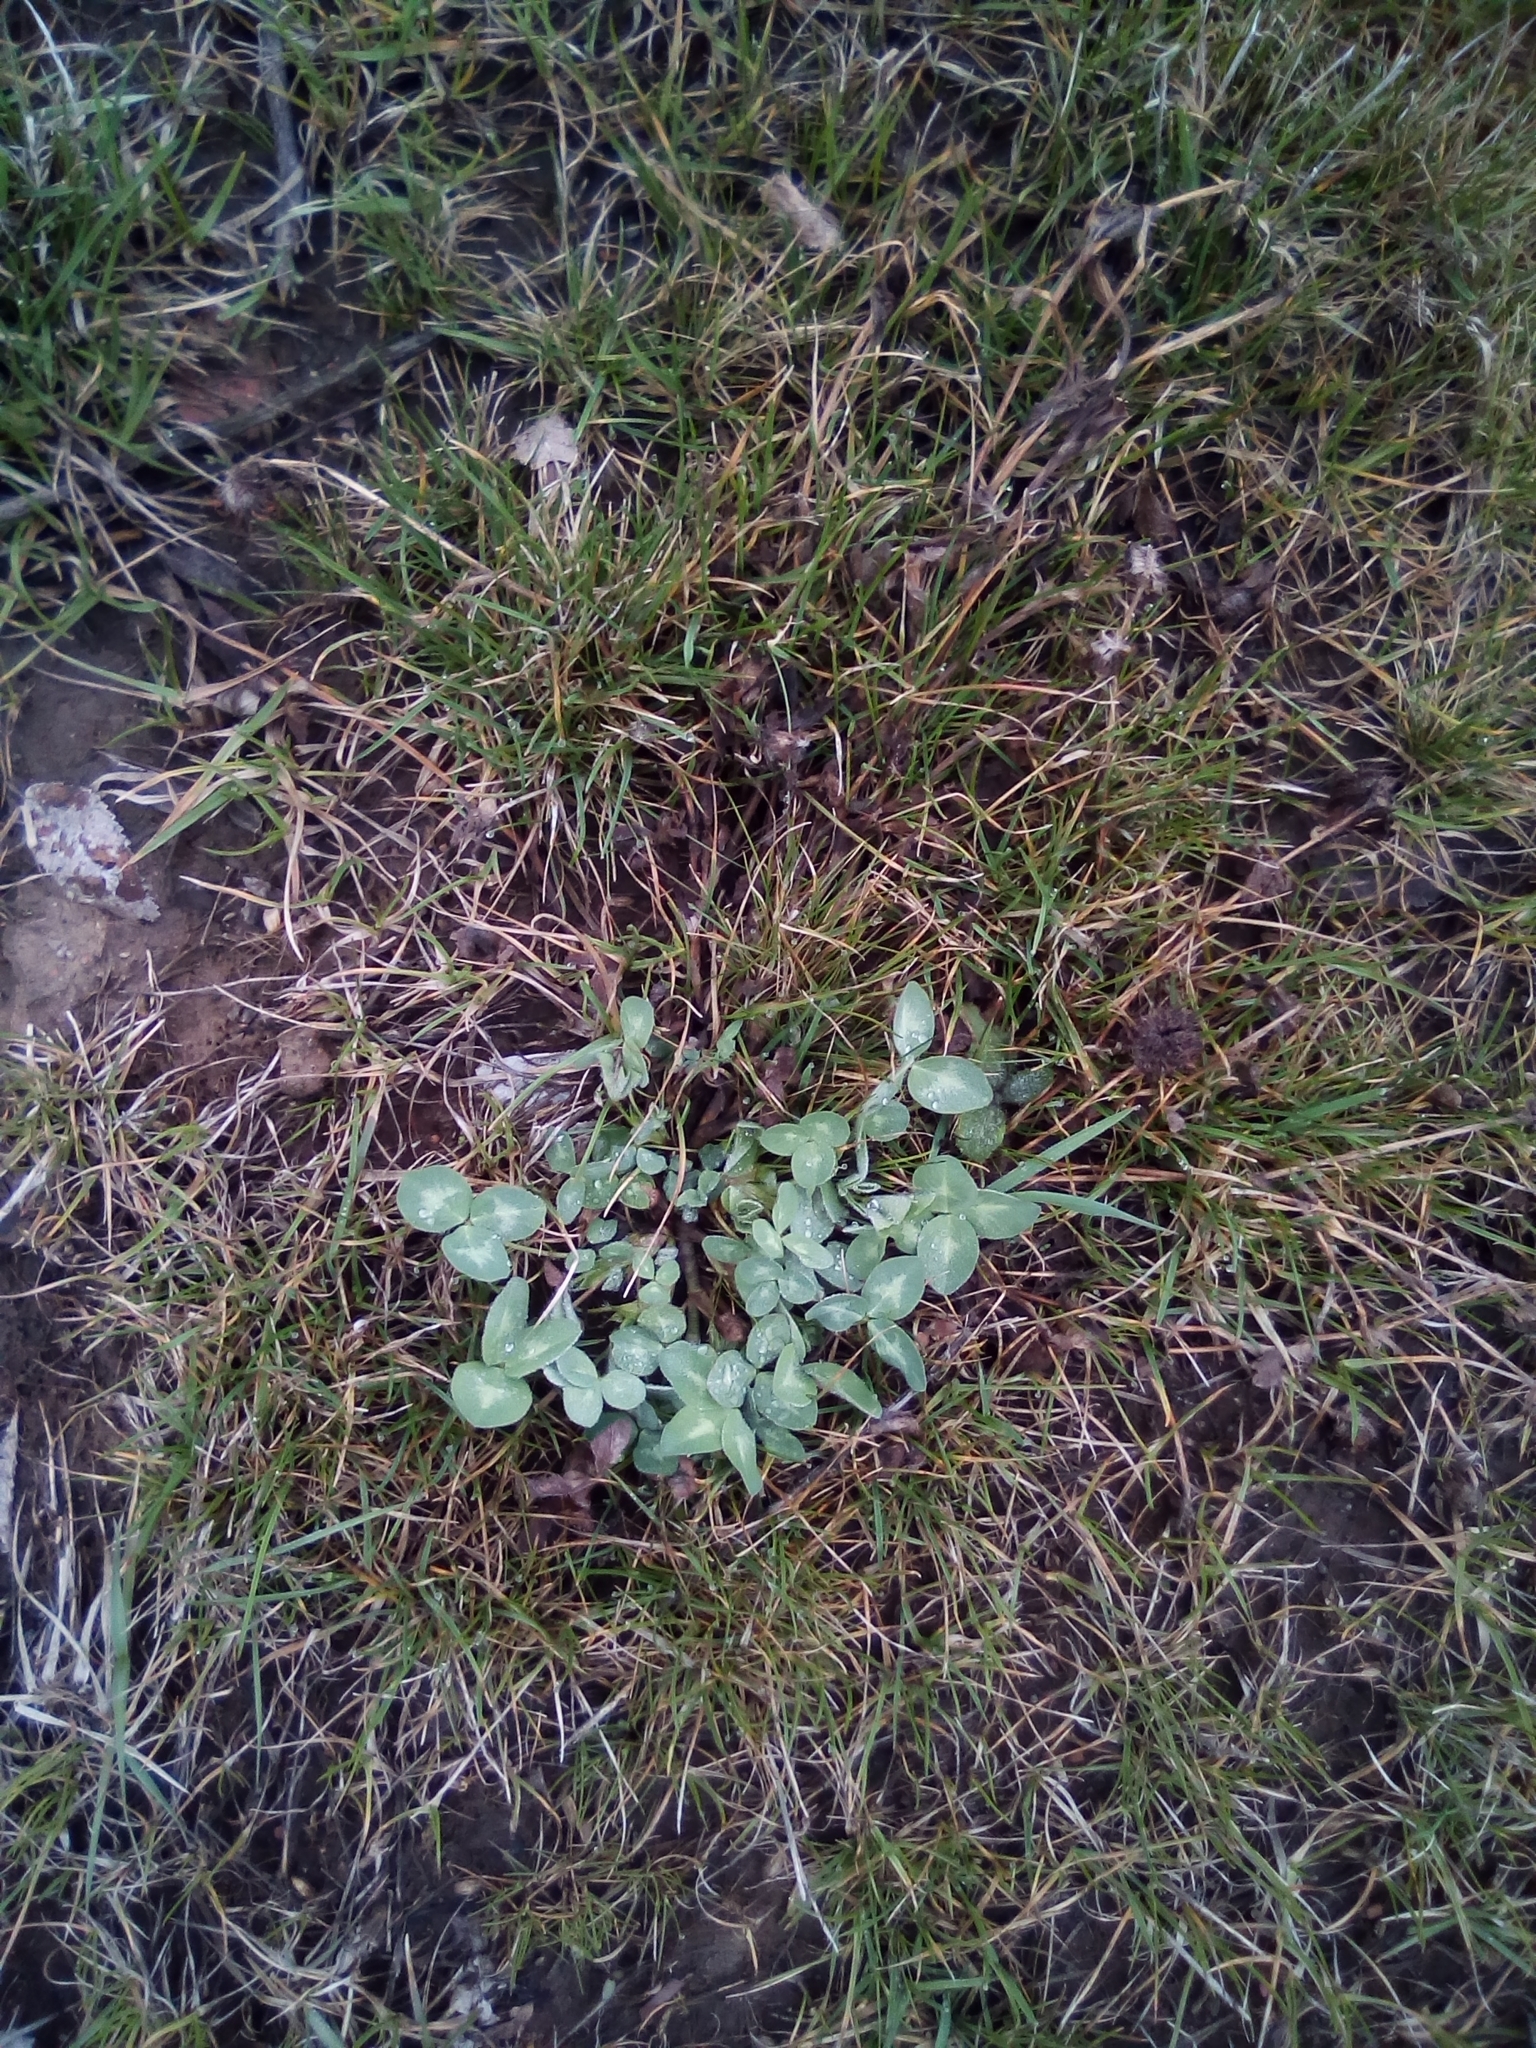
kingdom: Plantae
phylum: Tracheophyta
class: Magnoliopsida
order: Fabales
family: Fabaceae
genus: Trifolium
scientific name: Trifolium pratense
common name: Red clover
